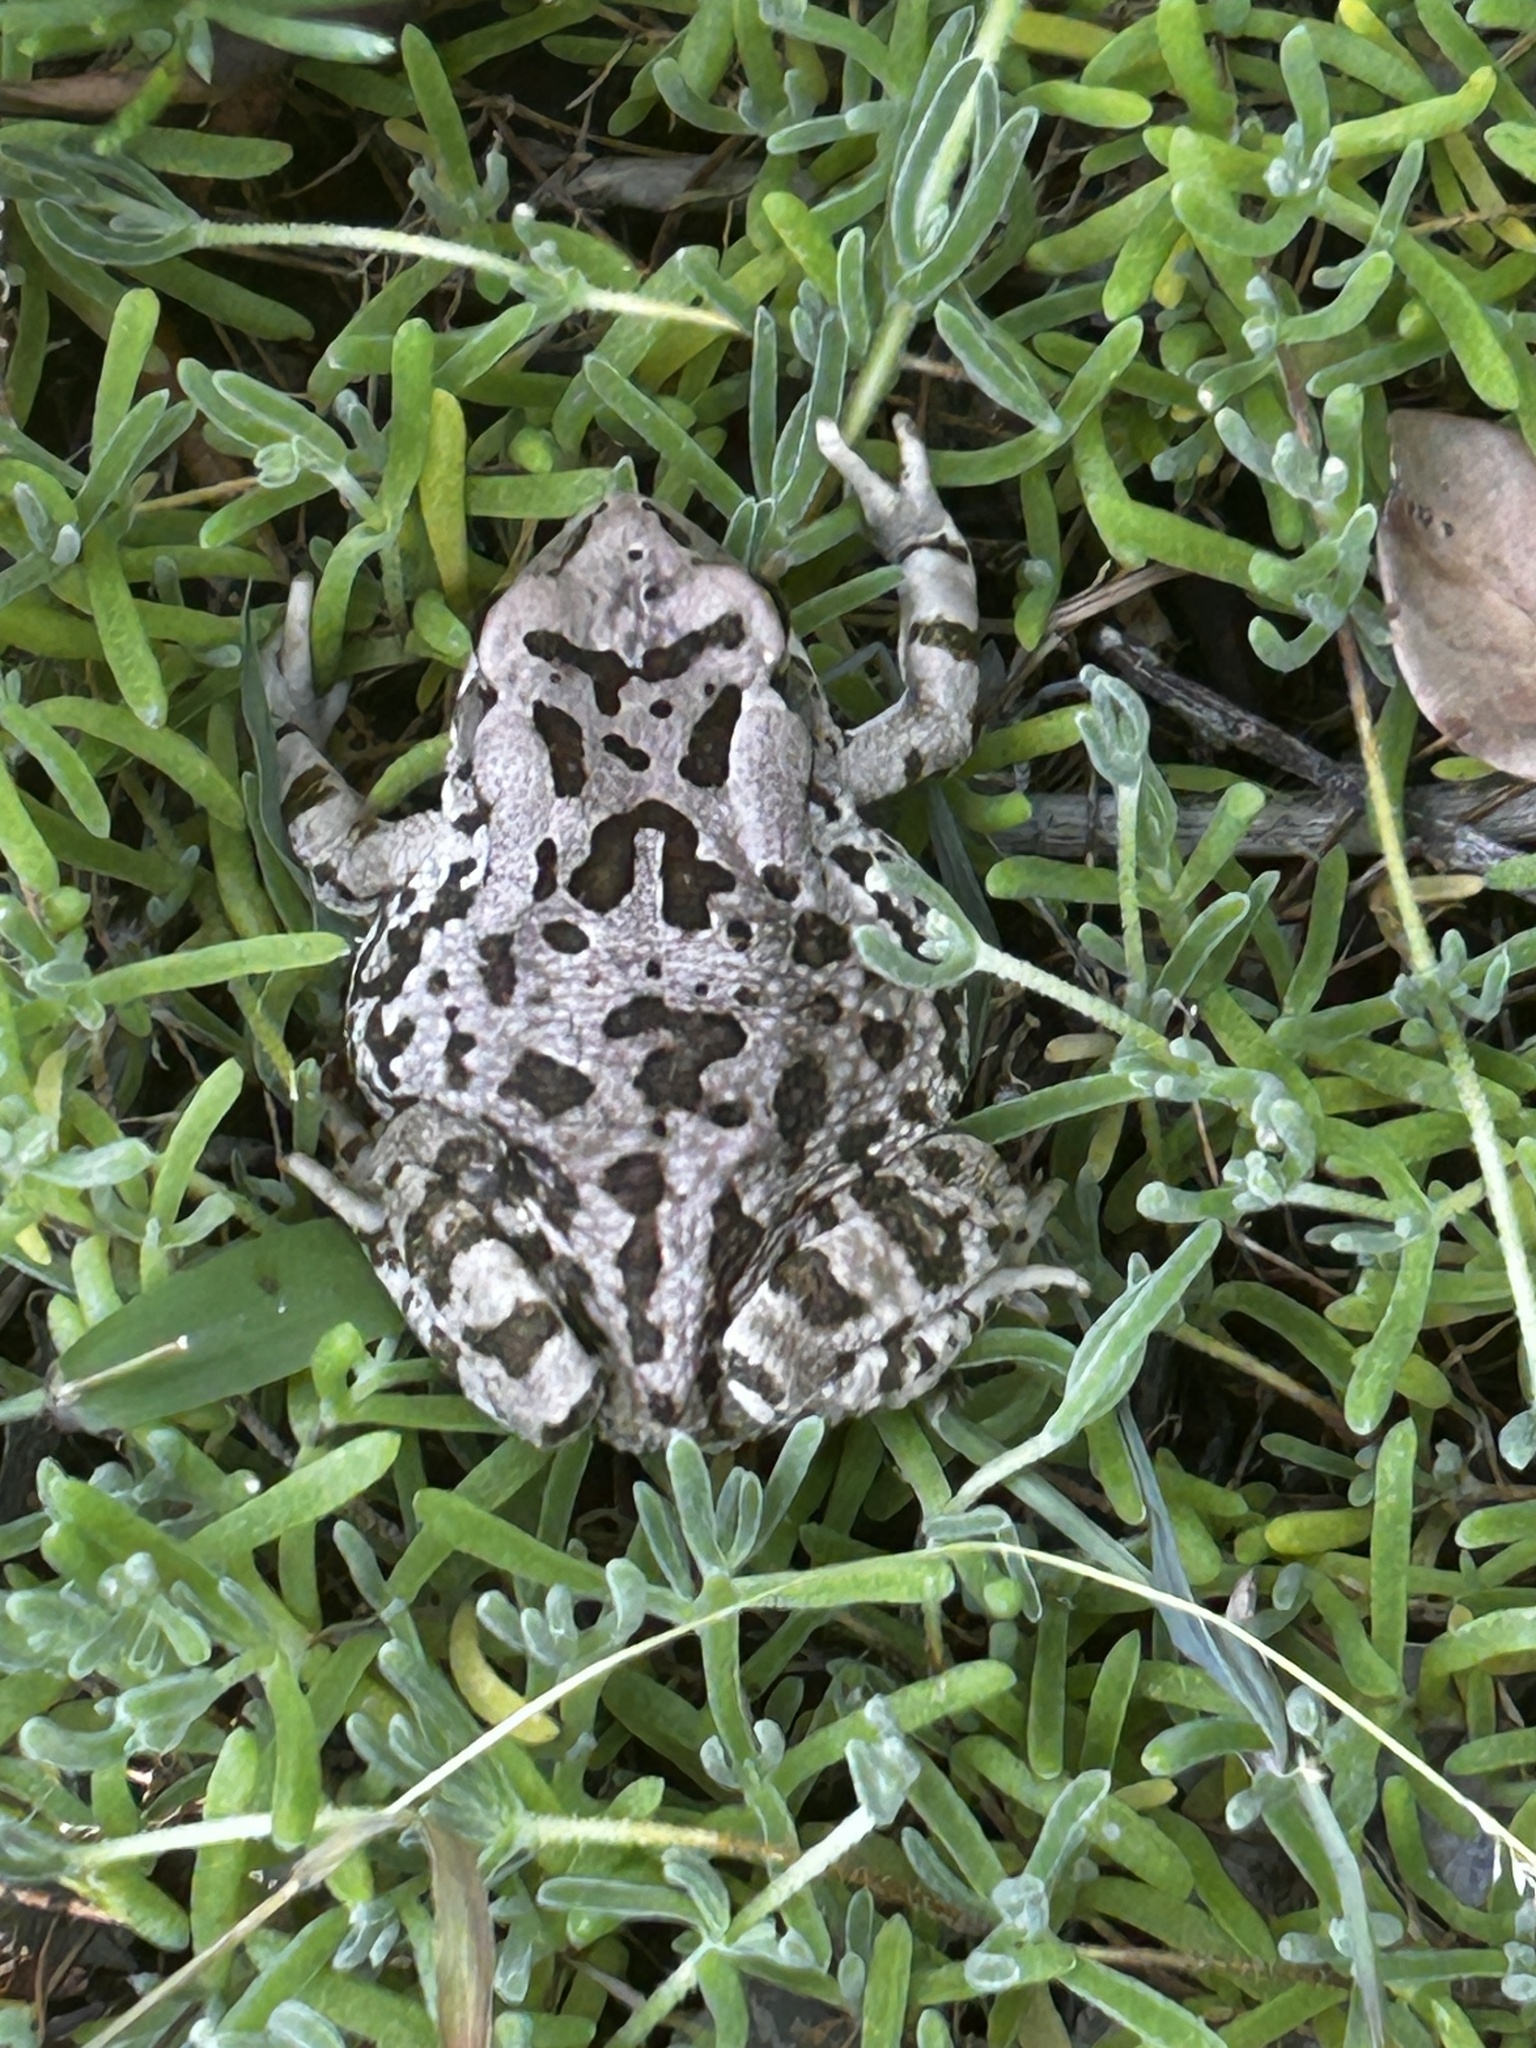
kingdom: Animalia
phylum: Chordata
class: Amphibia
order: Anura
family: Bufonidae
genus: Sclerophrys
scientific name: Sclerophrys capensis
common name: Ranger’s toad
